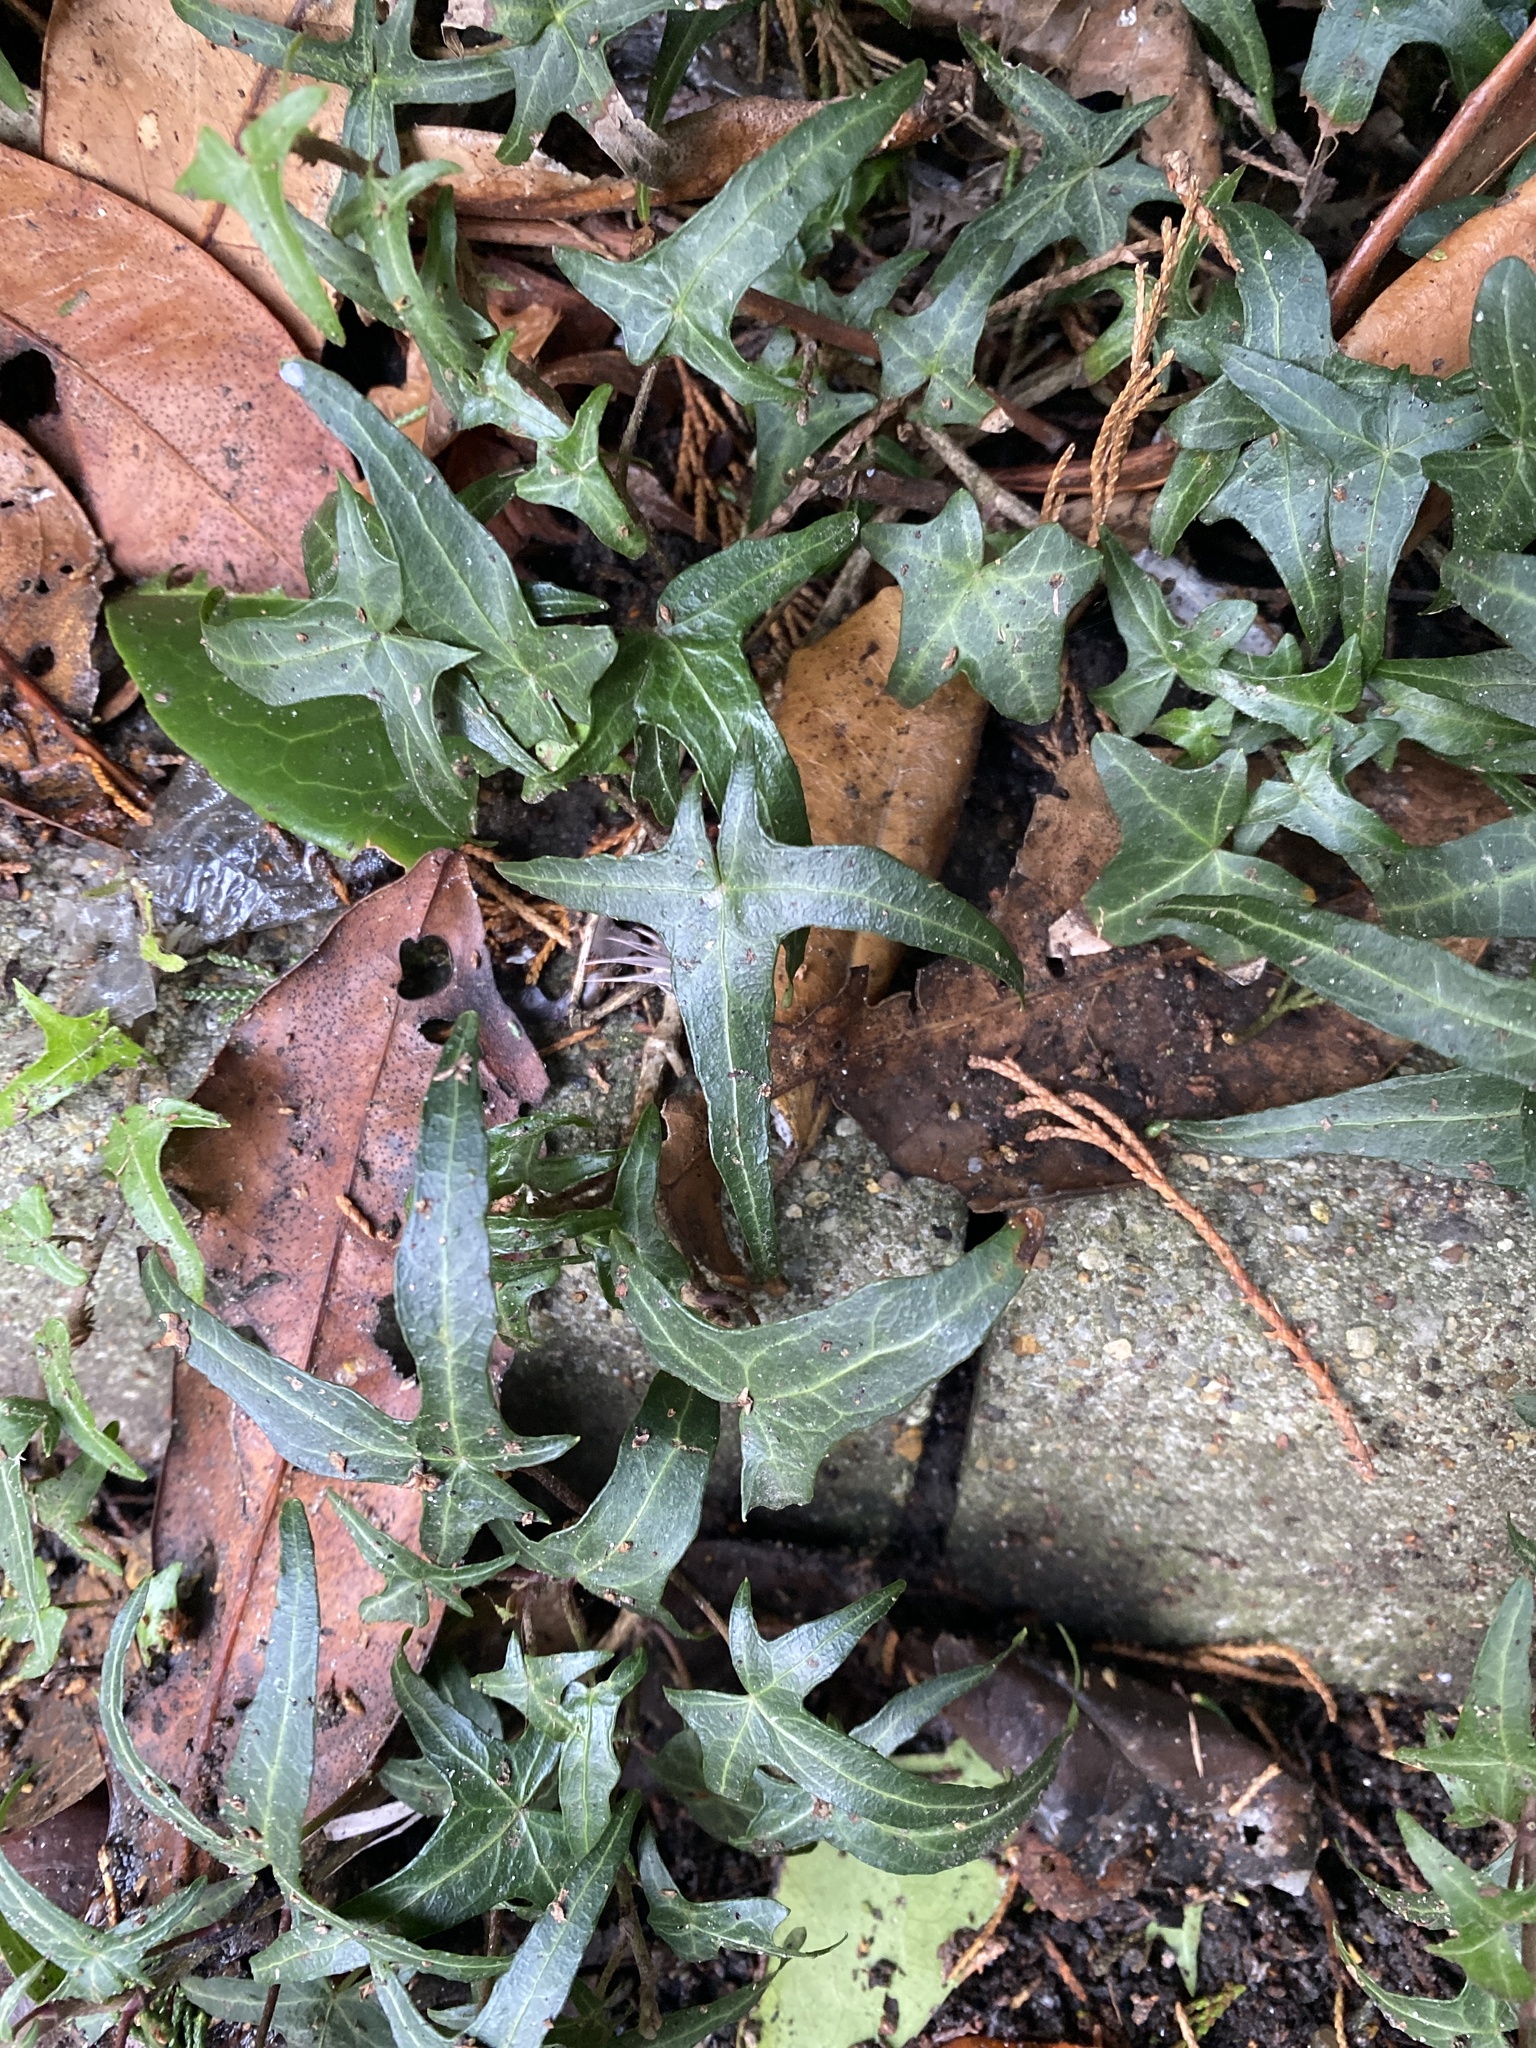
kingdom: Plantae
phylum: Tracheophyta
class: Magnoliopsida
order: Apiales
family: Araliaceae
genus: Hedera
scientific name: Hedera helix
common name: Ivy
